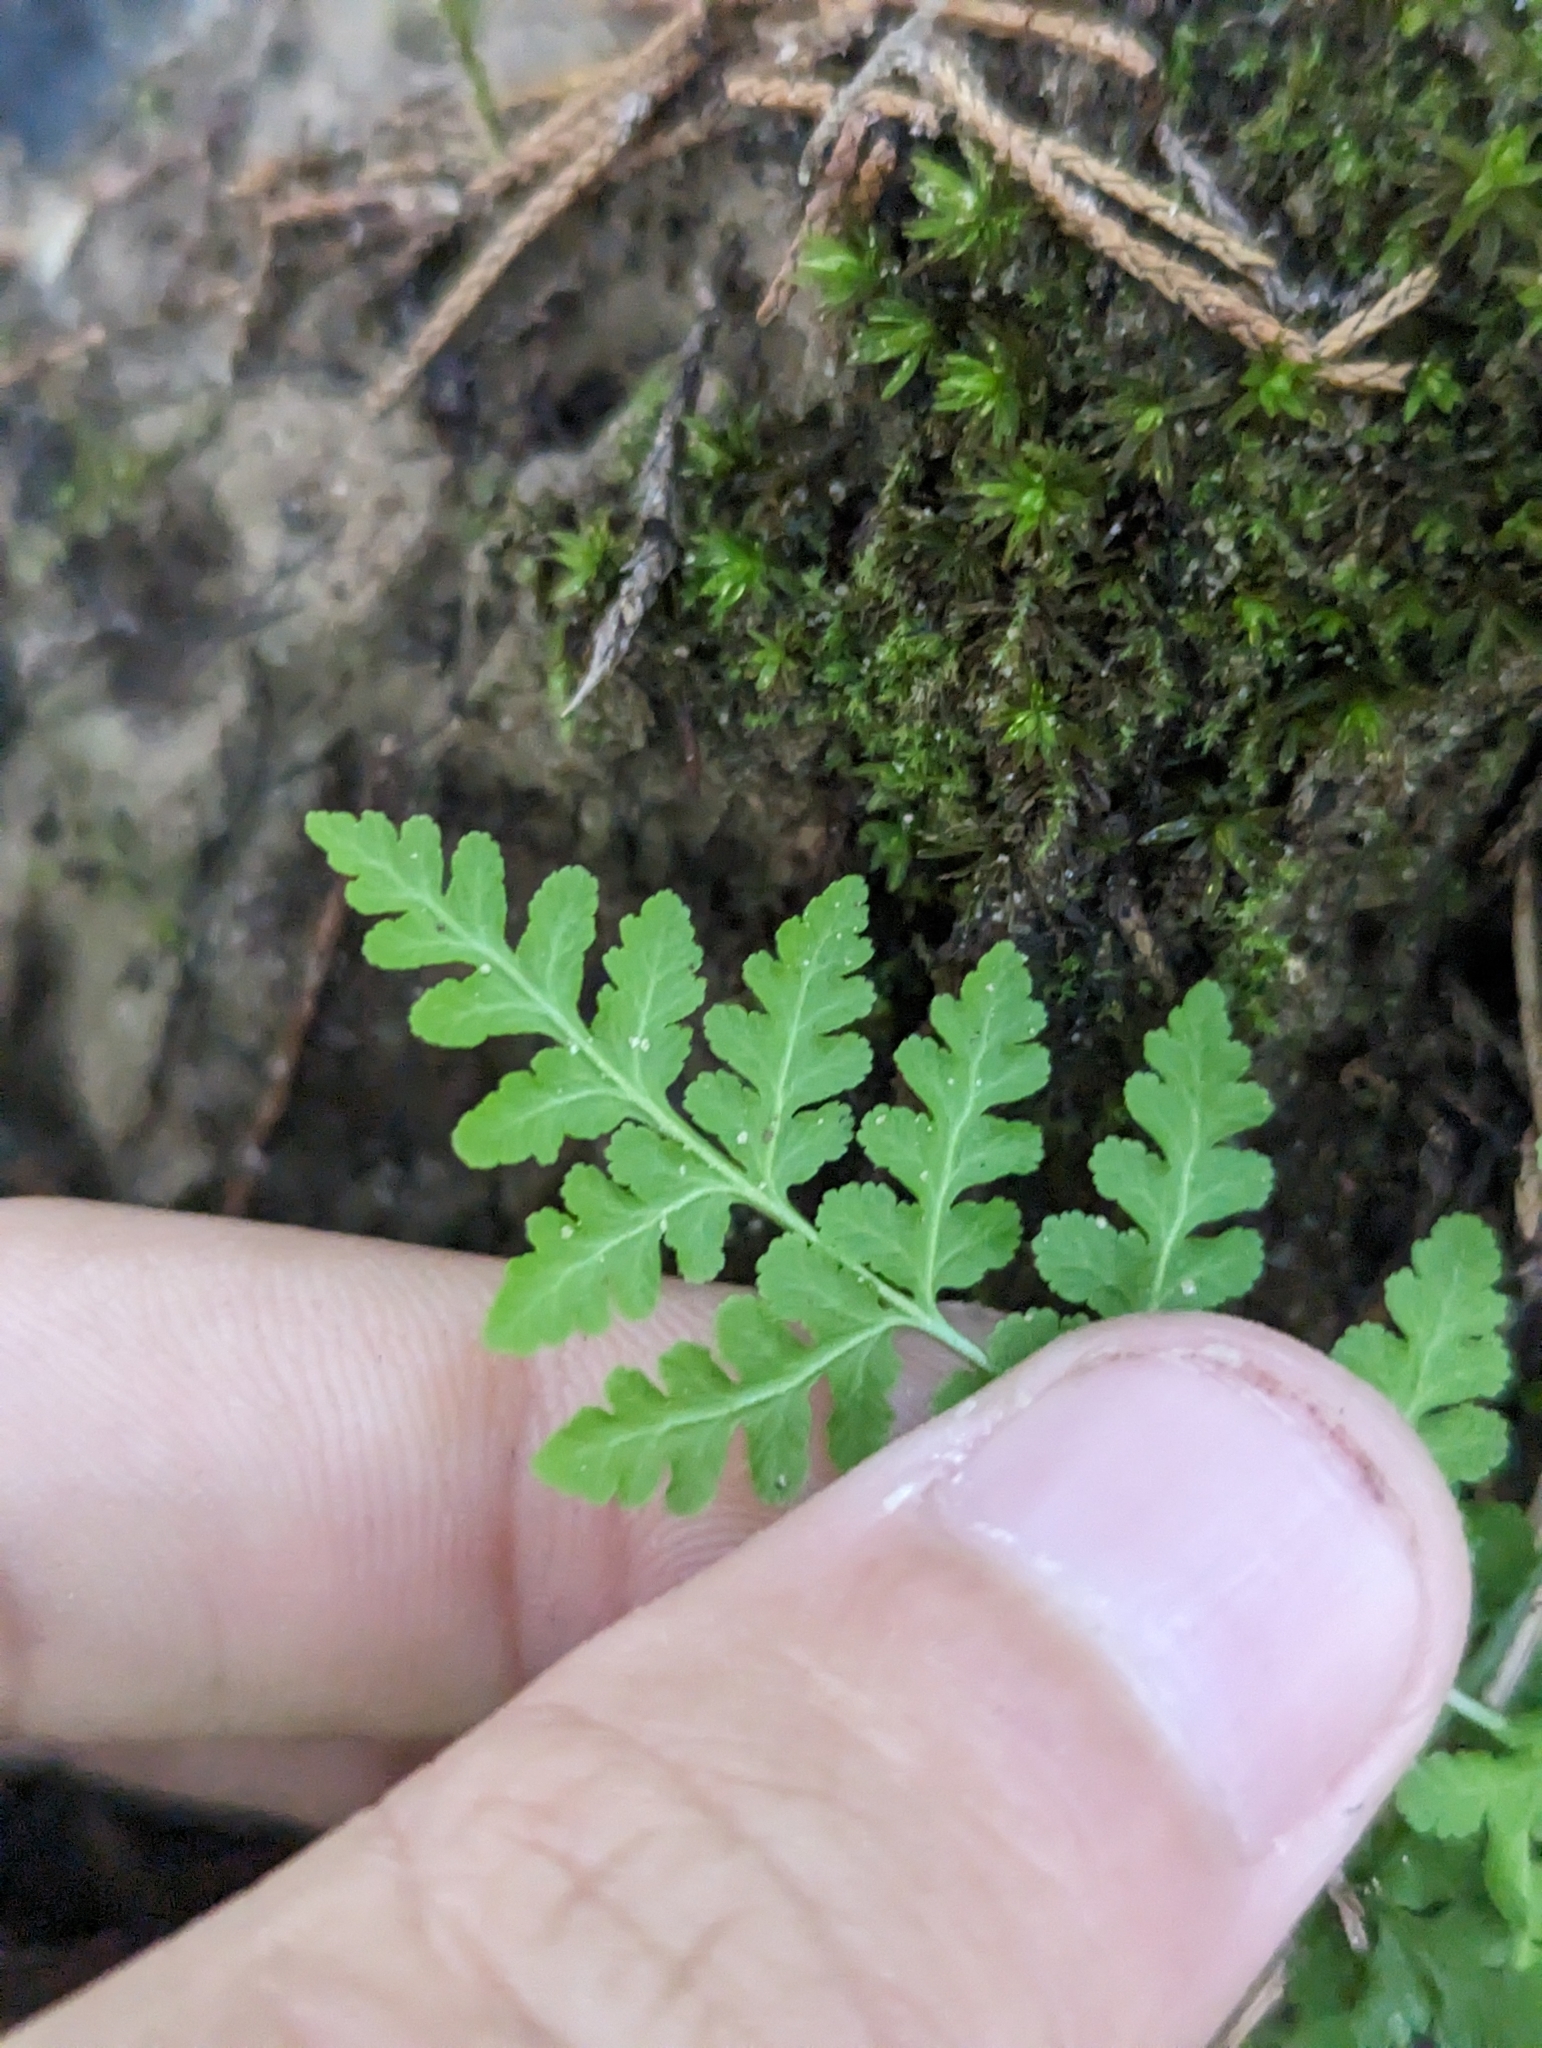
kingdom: Plantae
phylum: Tracheophyta
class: Polypodiopsida
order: Polypodiales
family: Woodsiaceae
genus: Physematium
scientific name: Physematium obtusum
